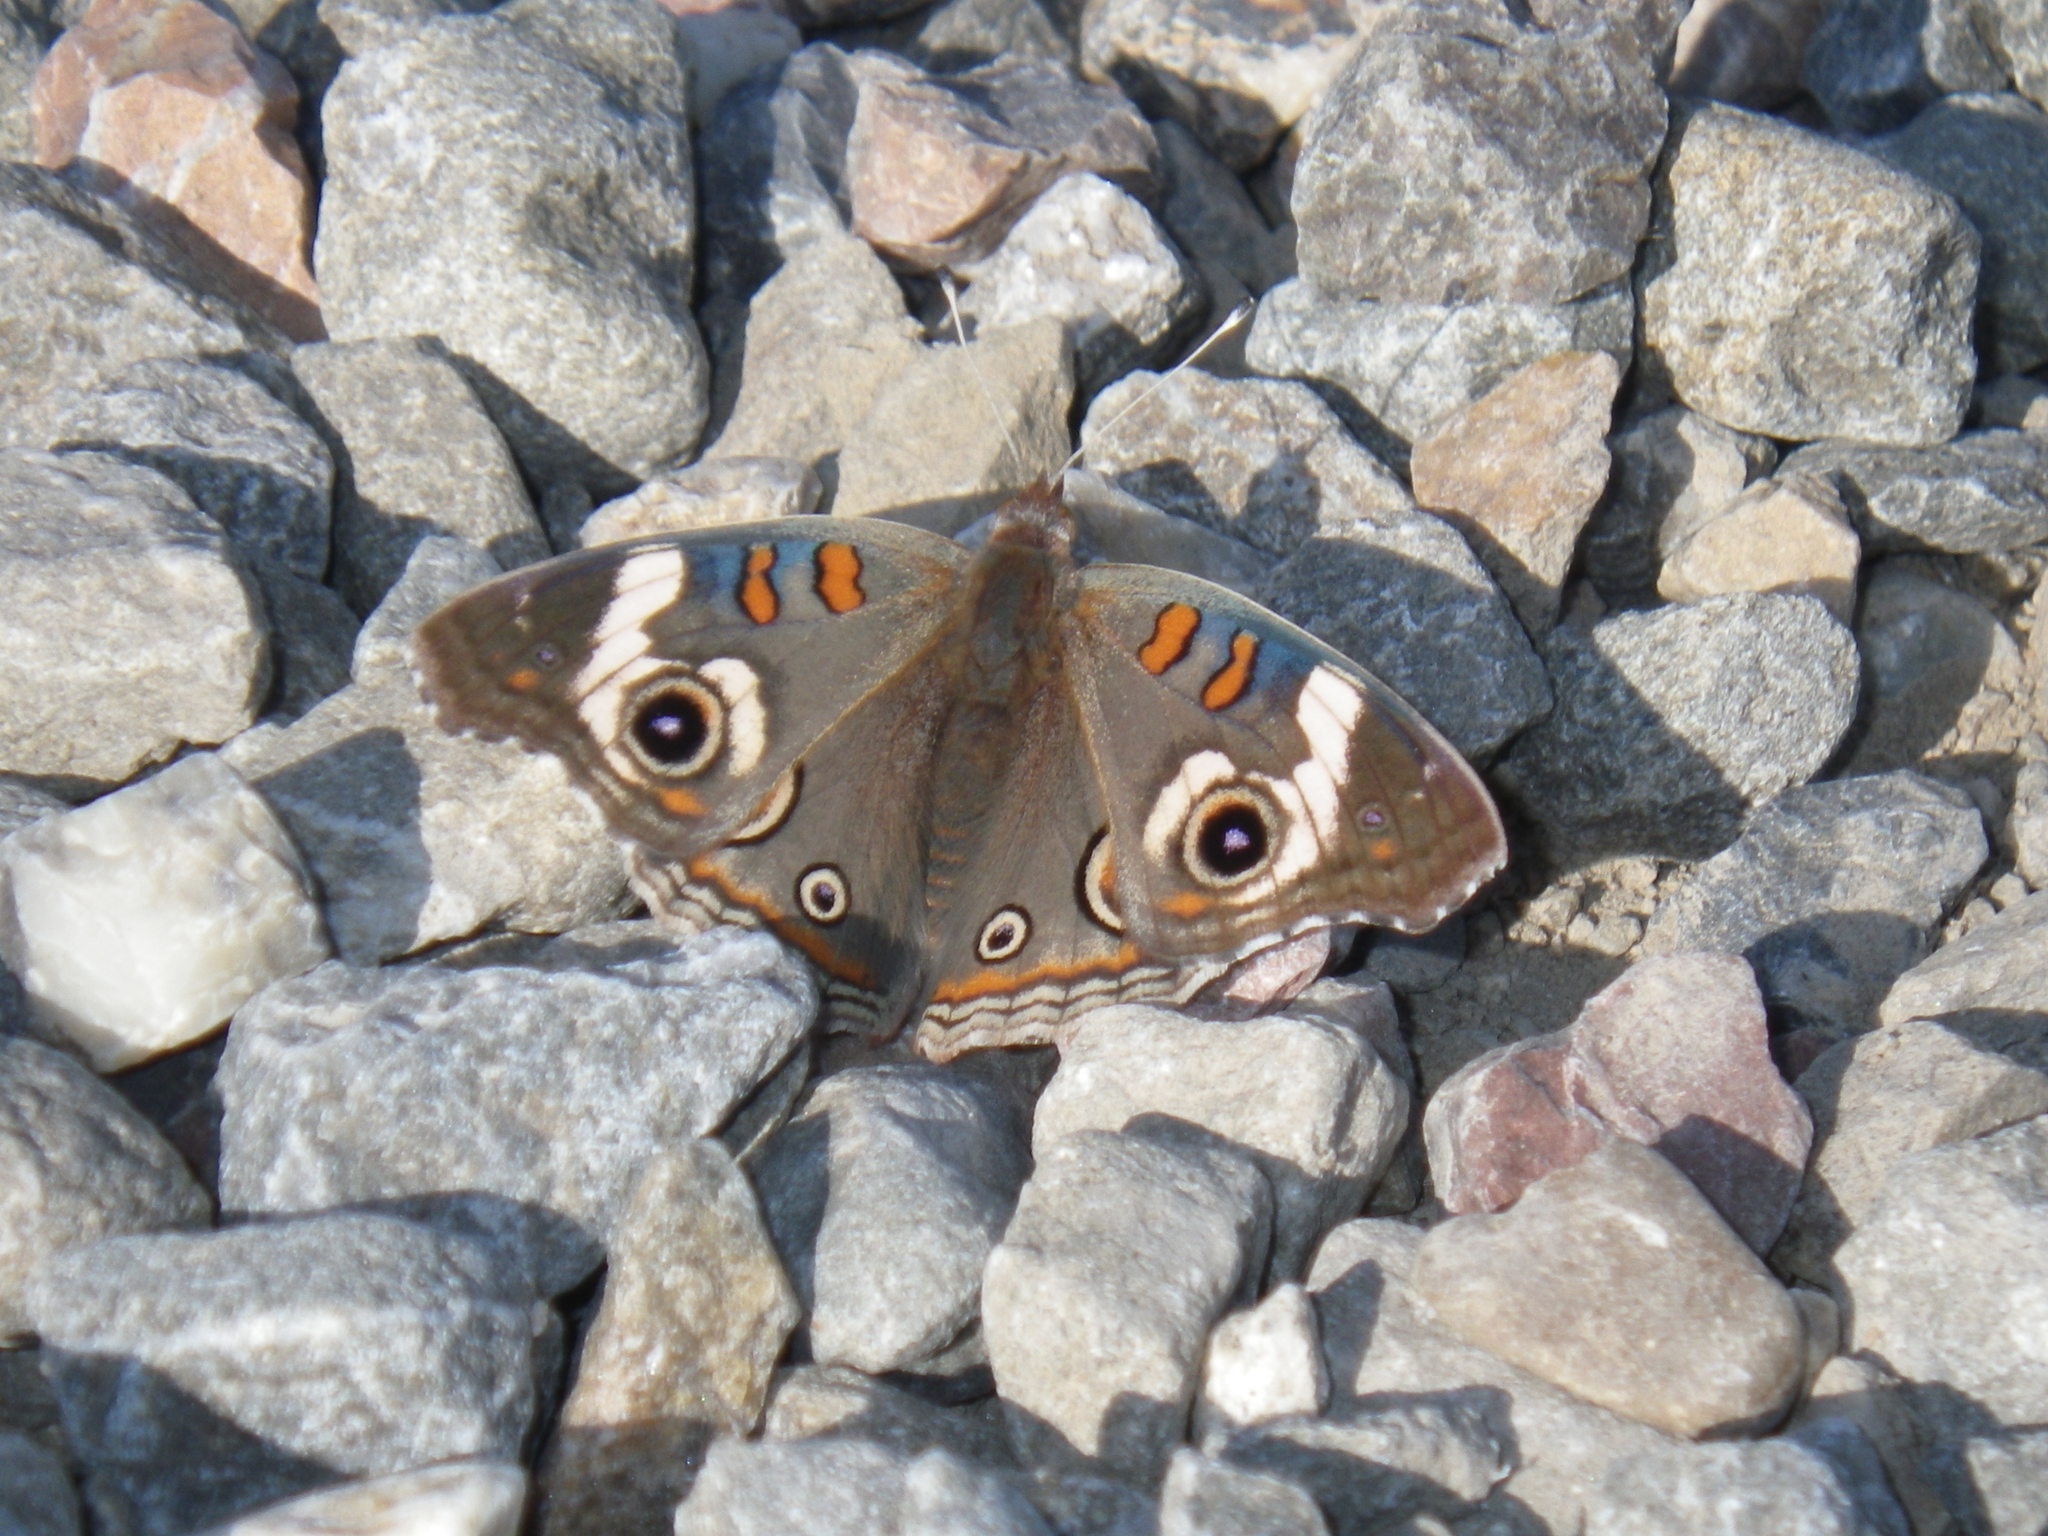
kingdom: Animalia
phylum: Arthropoda
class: Insecta
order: Lepidoptera
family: Nymphalidae
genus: Junonia
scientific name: Junonia grisea
